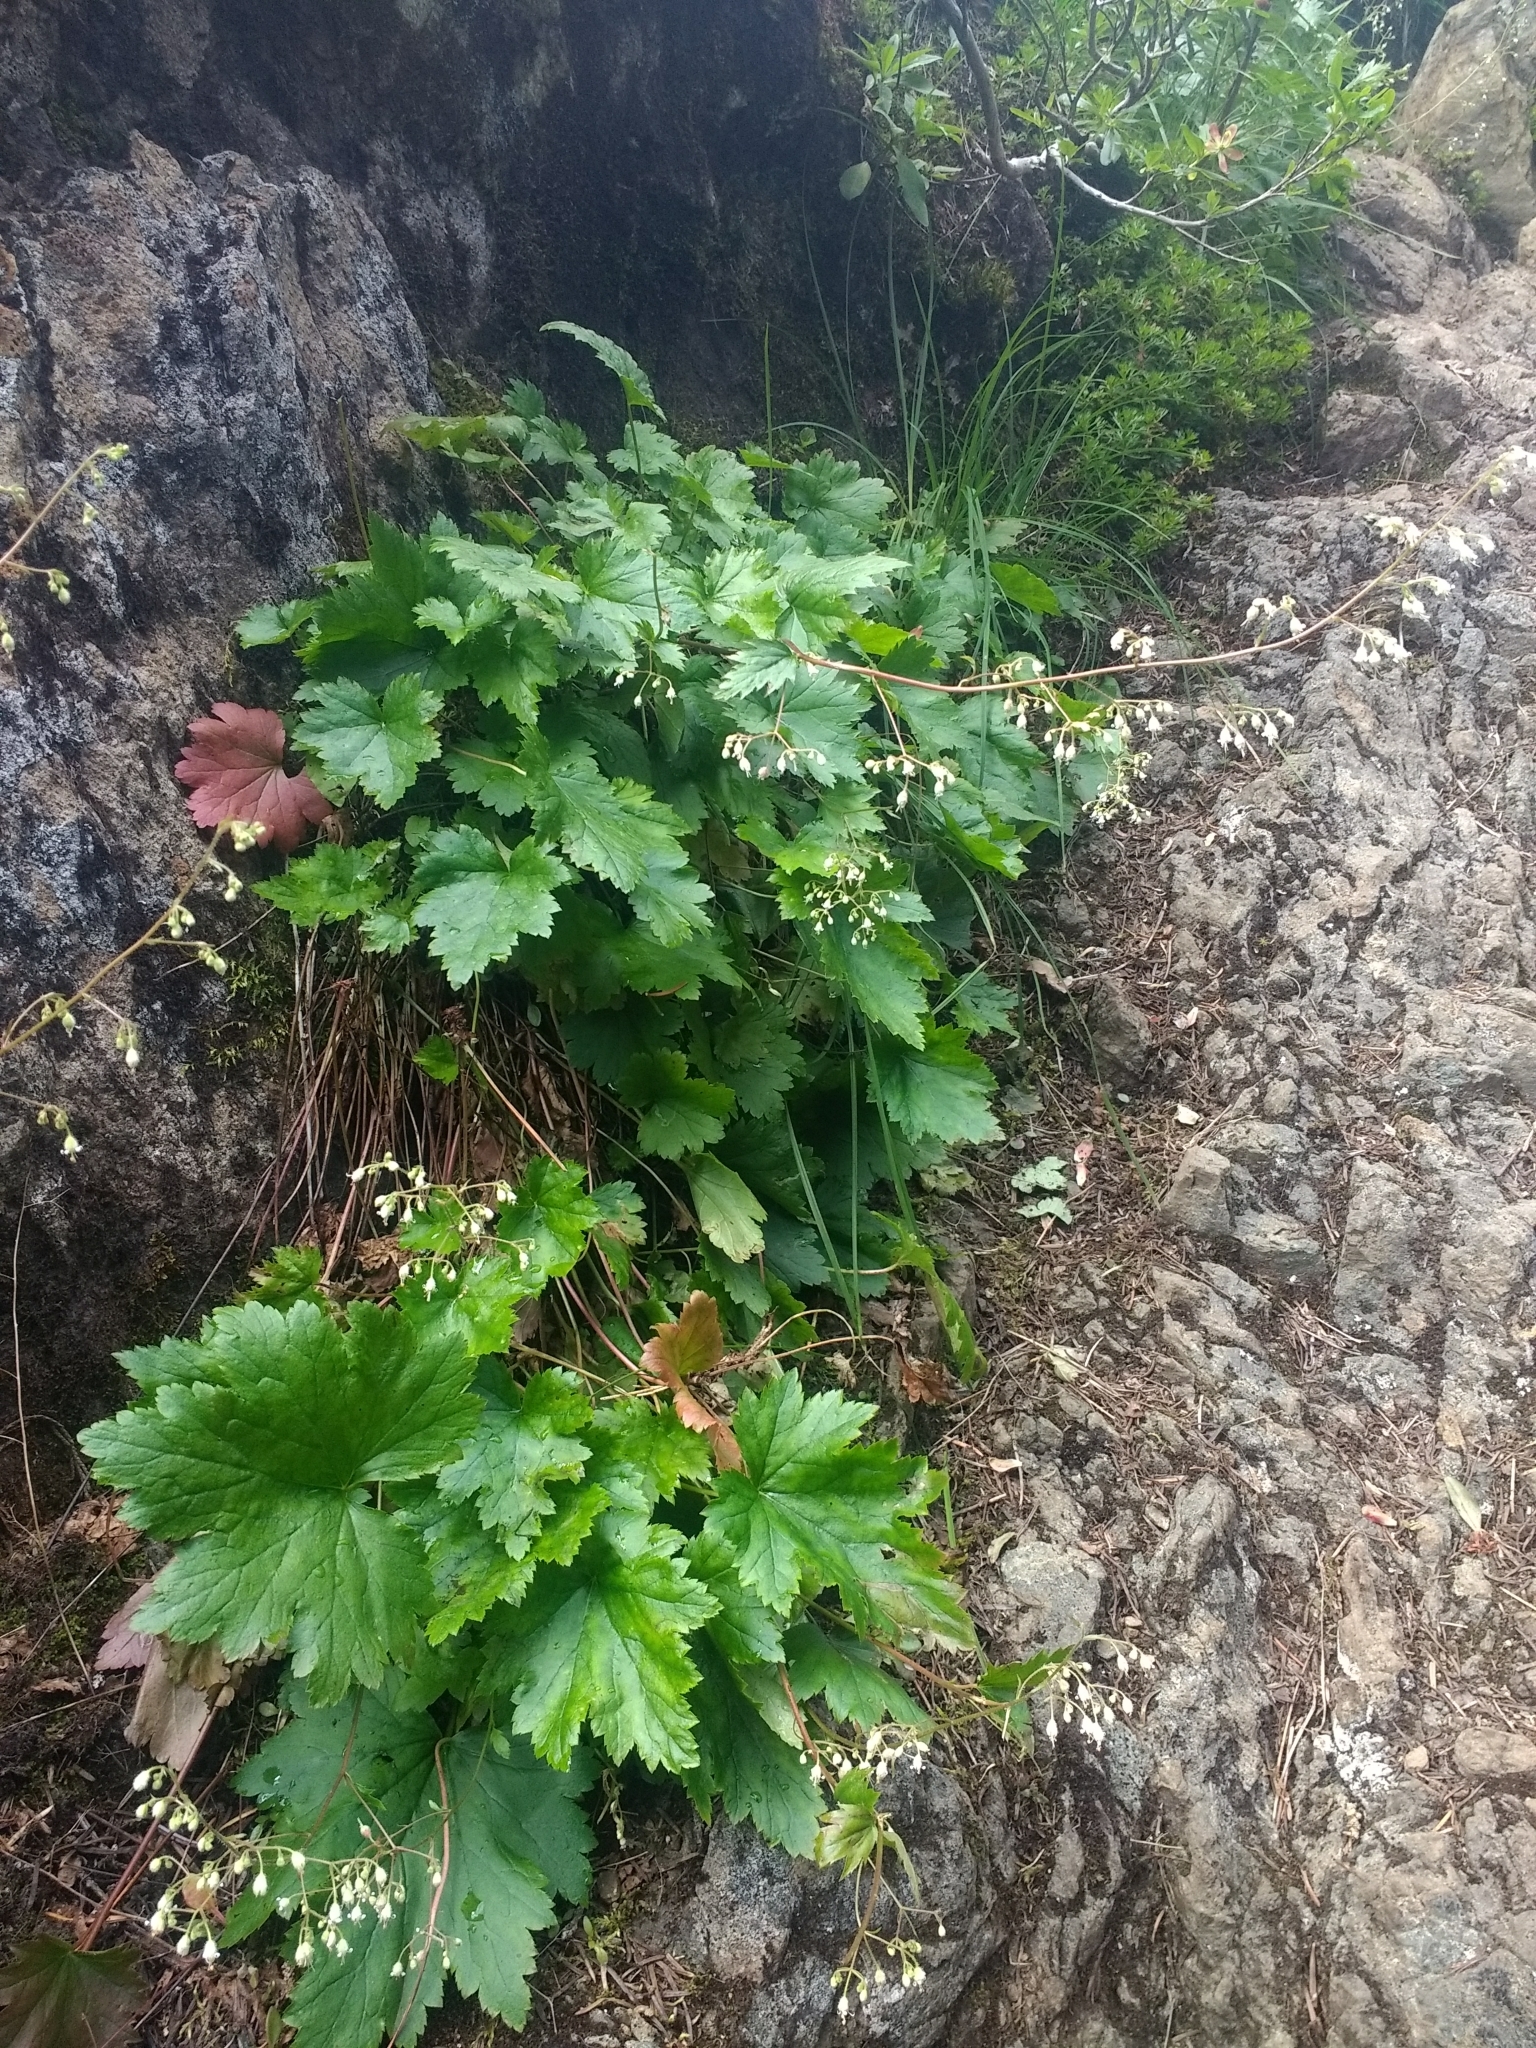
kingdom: Plantae
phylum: Tracheophyta
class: Magnoliopsida
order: Saxifragales
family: Saxifragaceae
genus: Heuchera
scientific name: Heuchera micrantha
